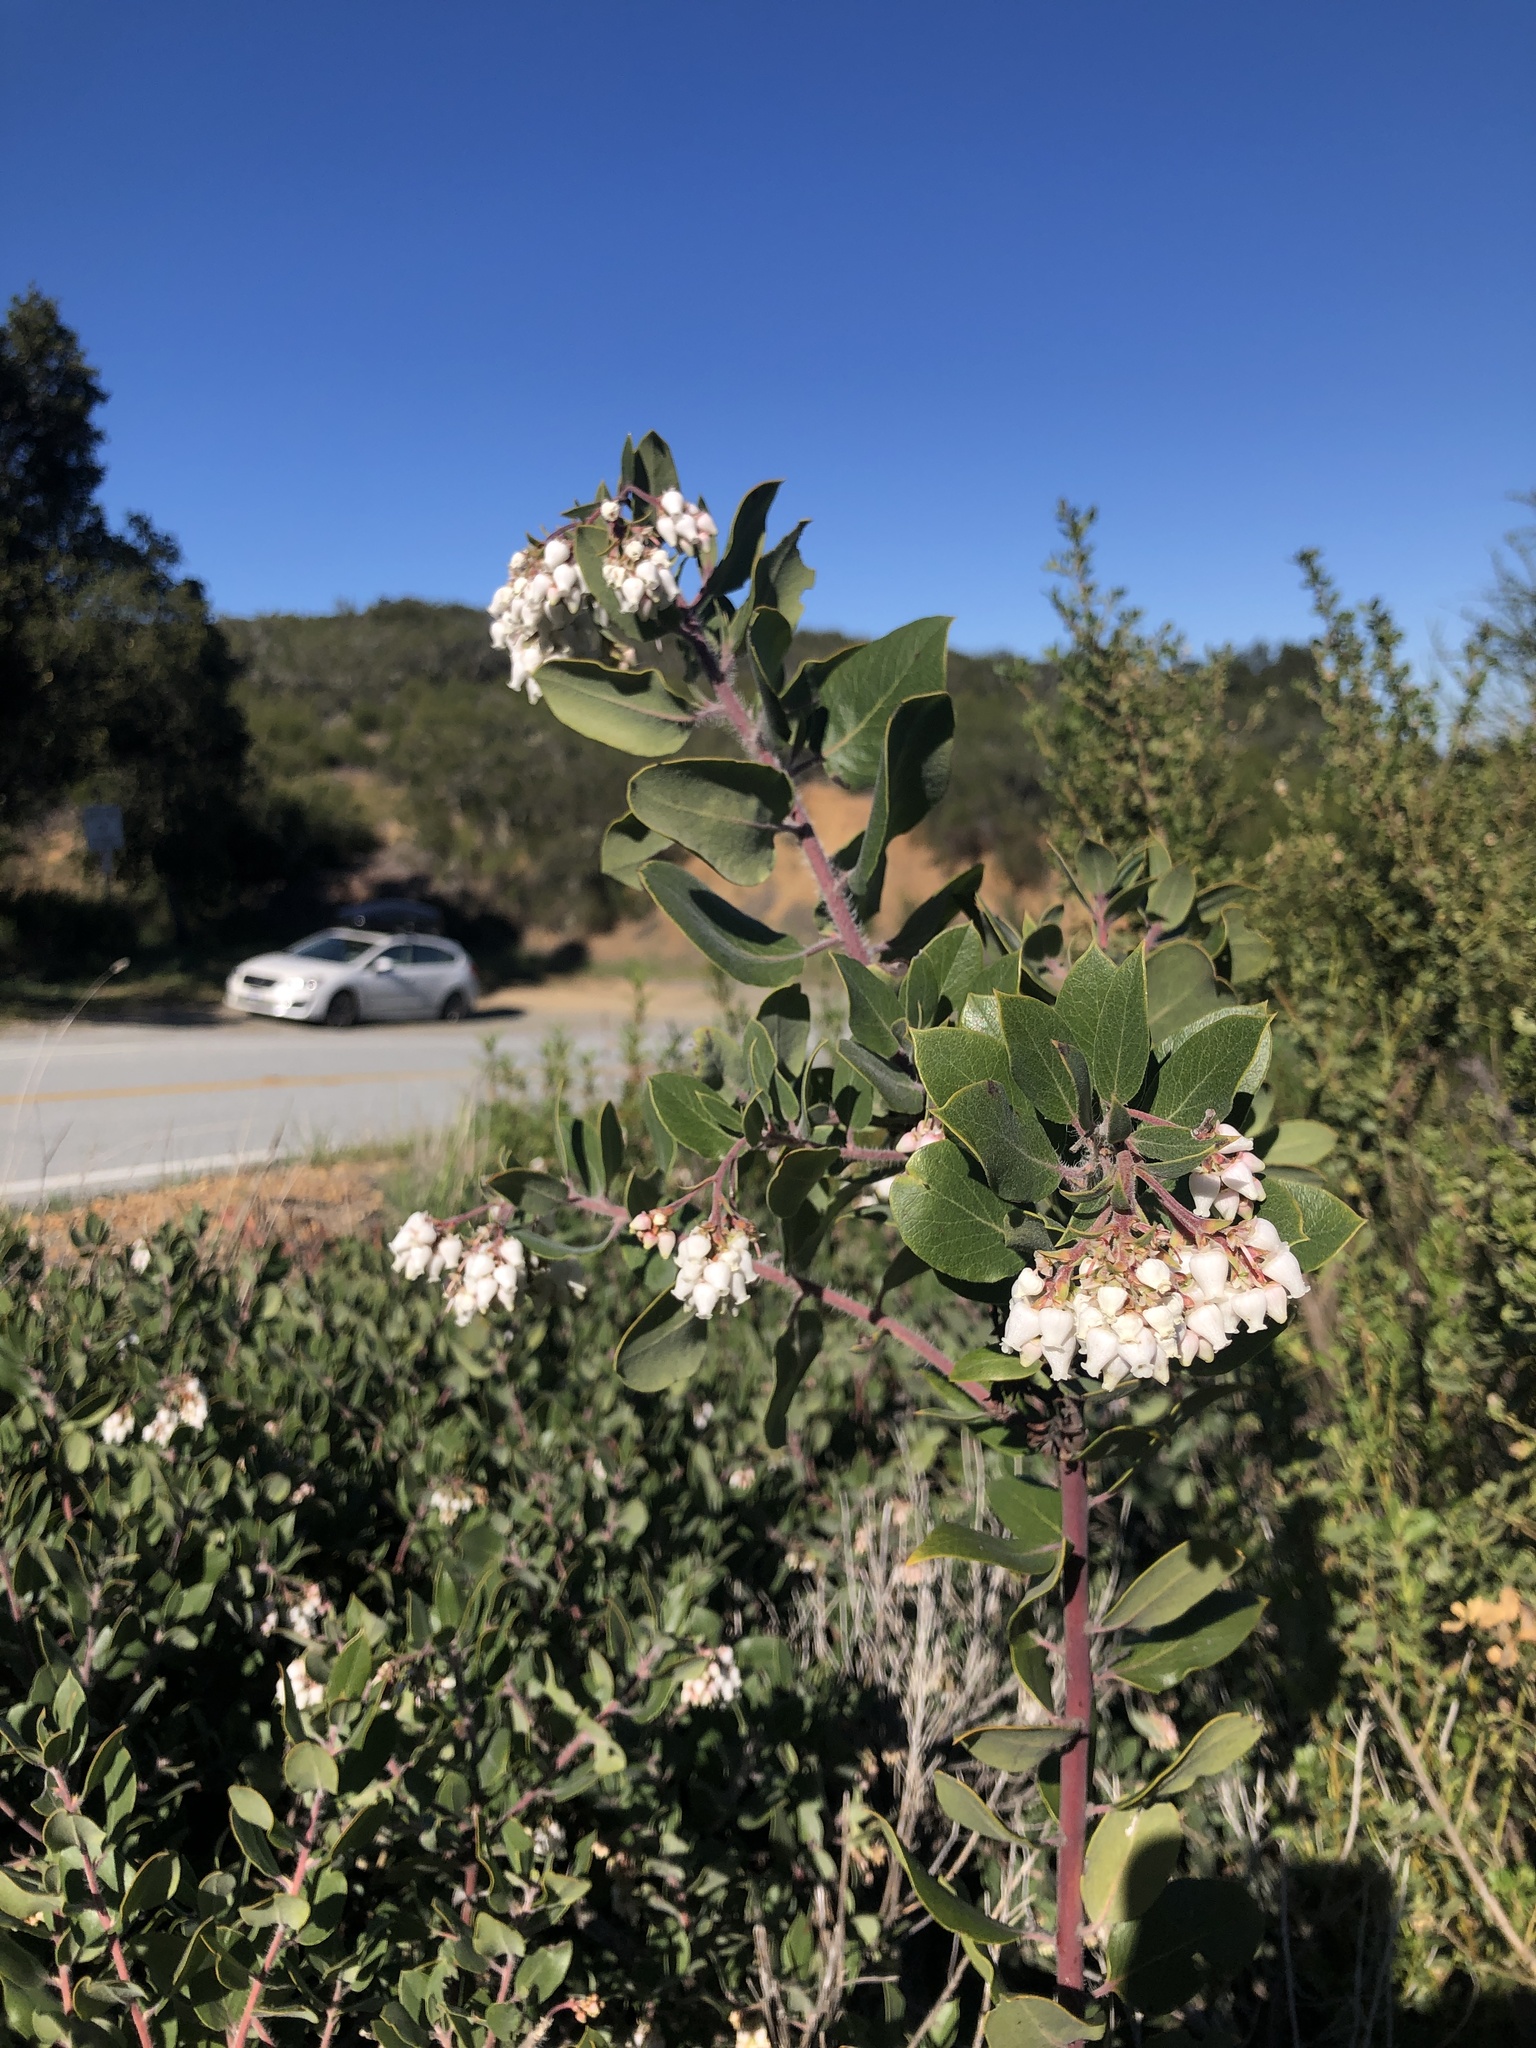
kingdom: Plantae
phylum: Tracheophyta
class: Magnoliopsida
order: Ericales
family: Ericaceae
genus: Arctostaphylos
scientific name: Arctostaphylos crustacea
